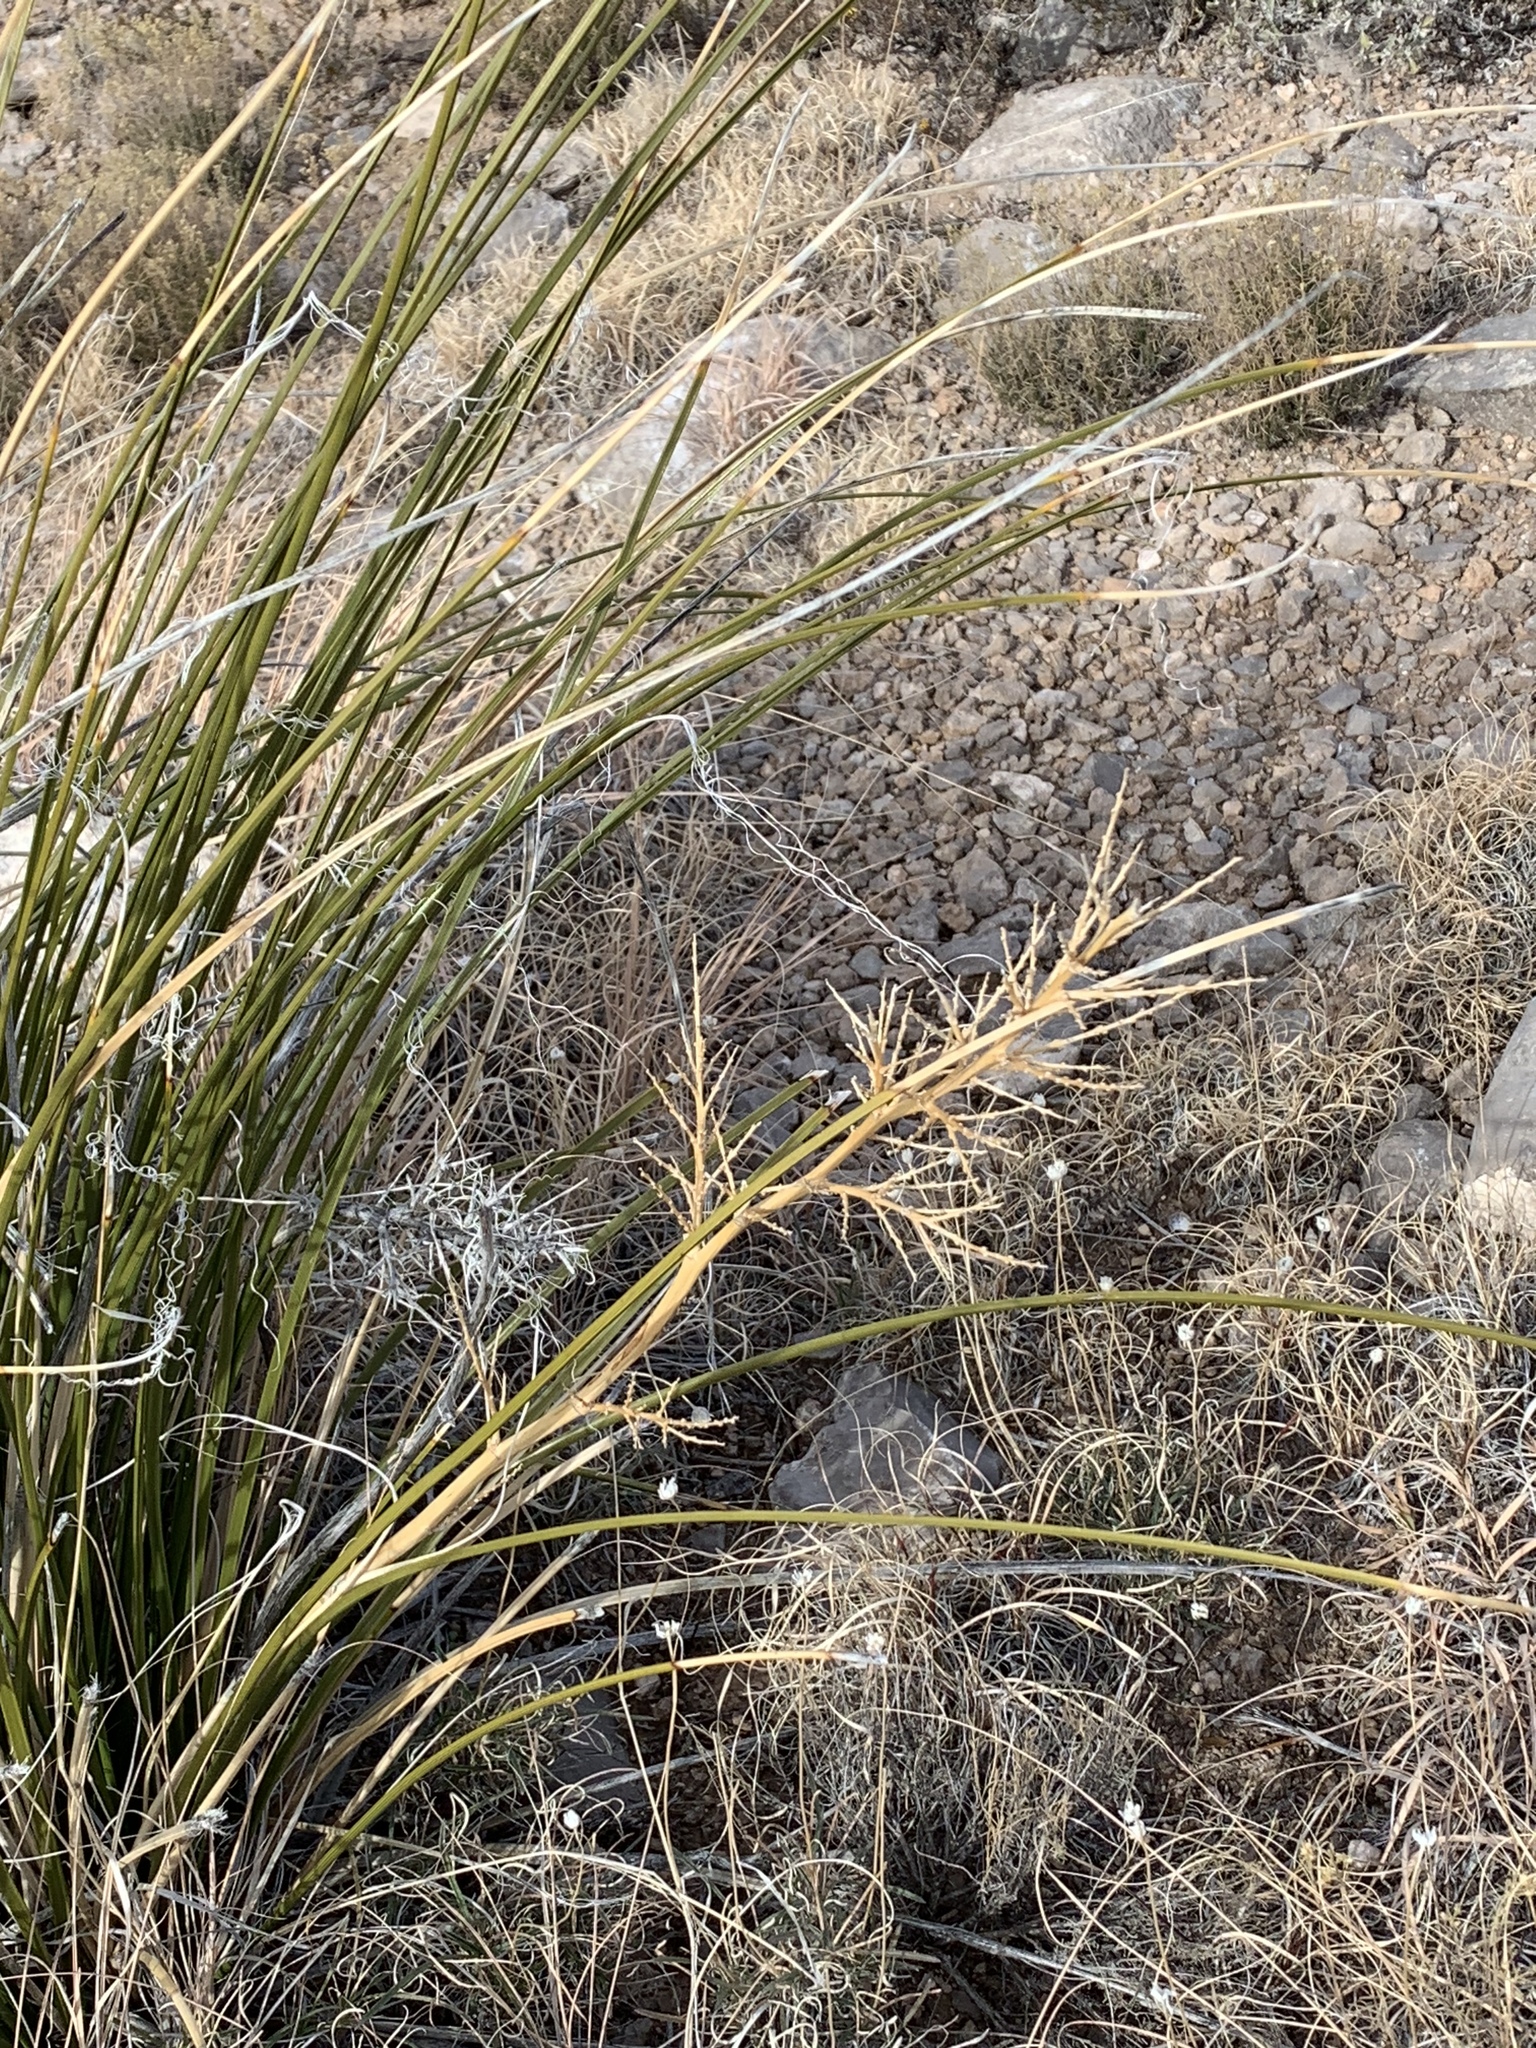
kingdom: Plantae
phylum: Tracheophyta
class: Liliopsida
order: Asparagales
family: Asparagaceae
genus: Nolina
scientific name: Nolina texana
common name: Texas sacahuiste
